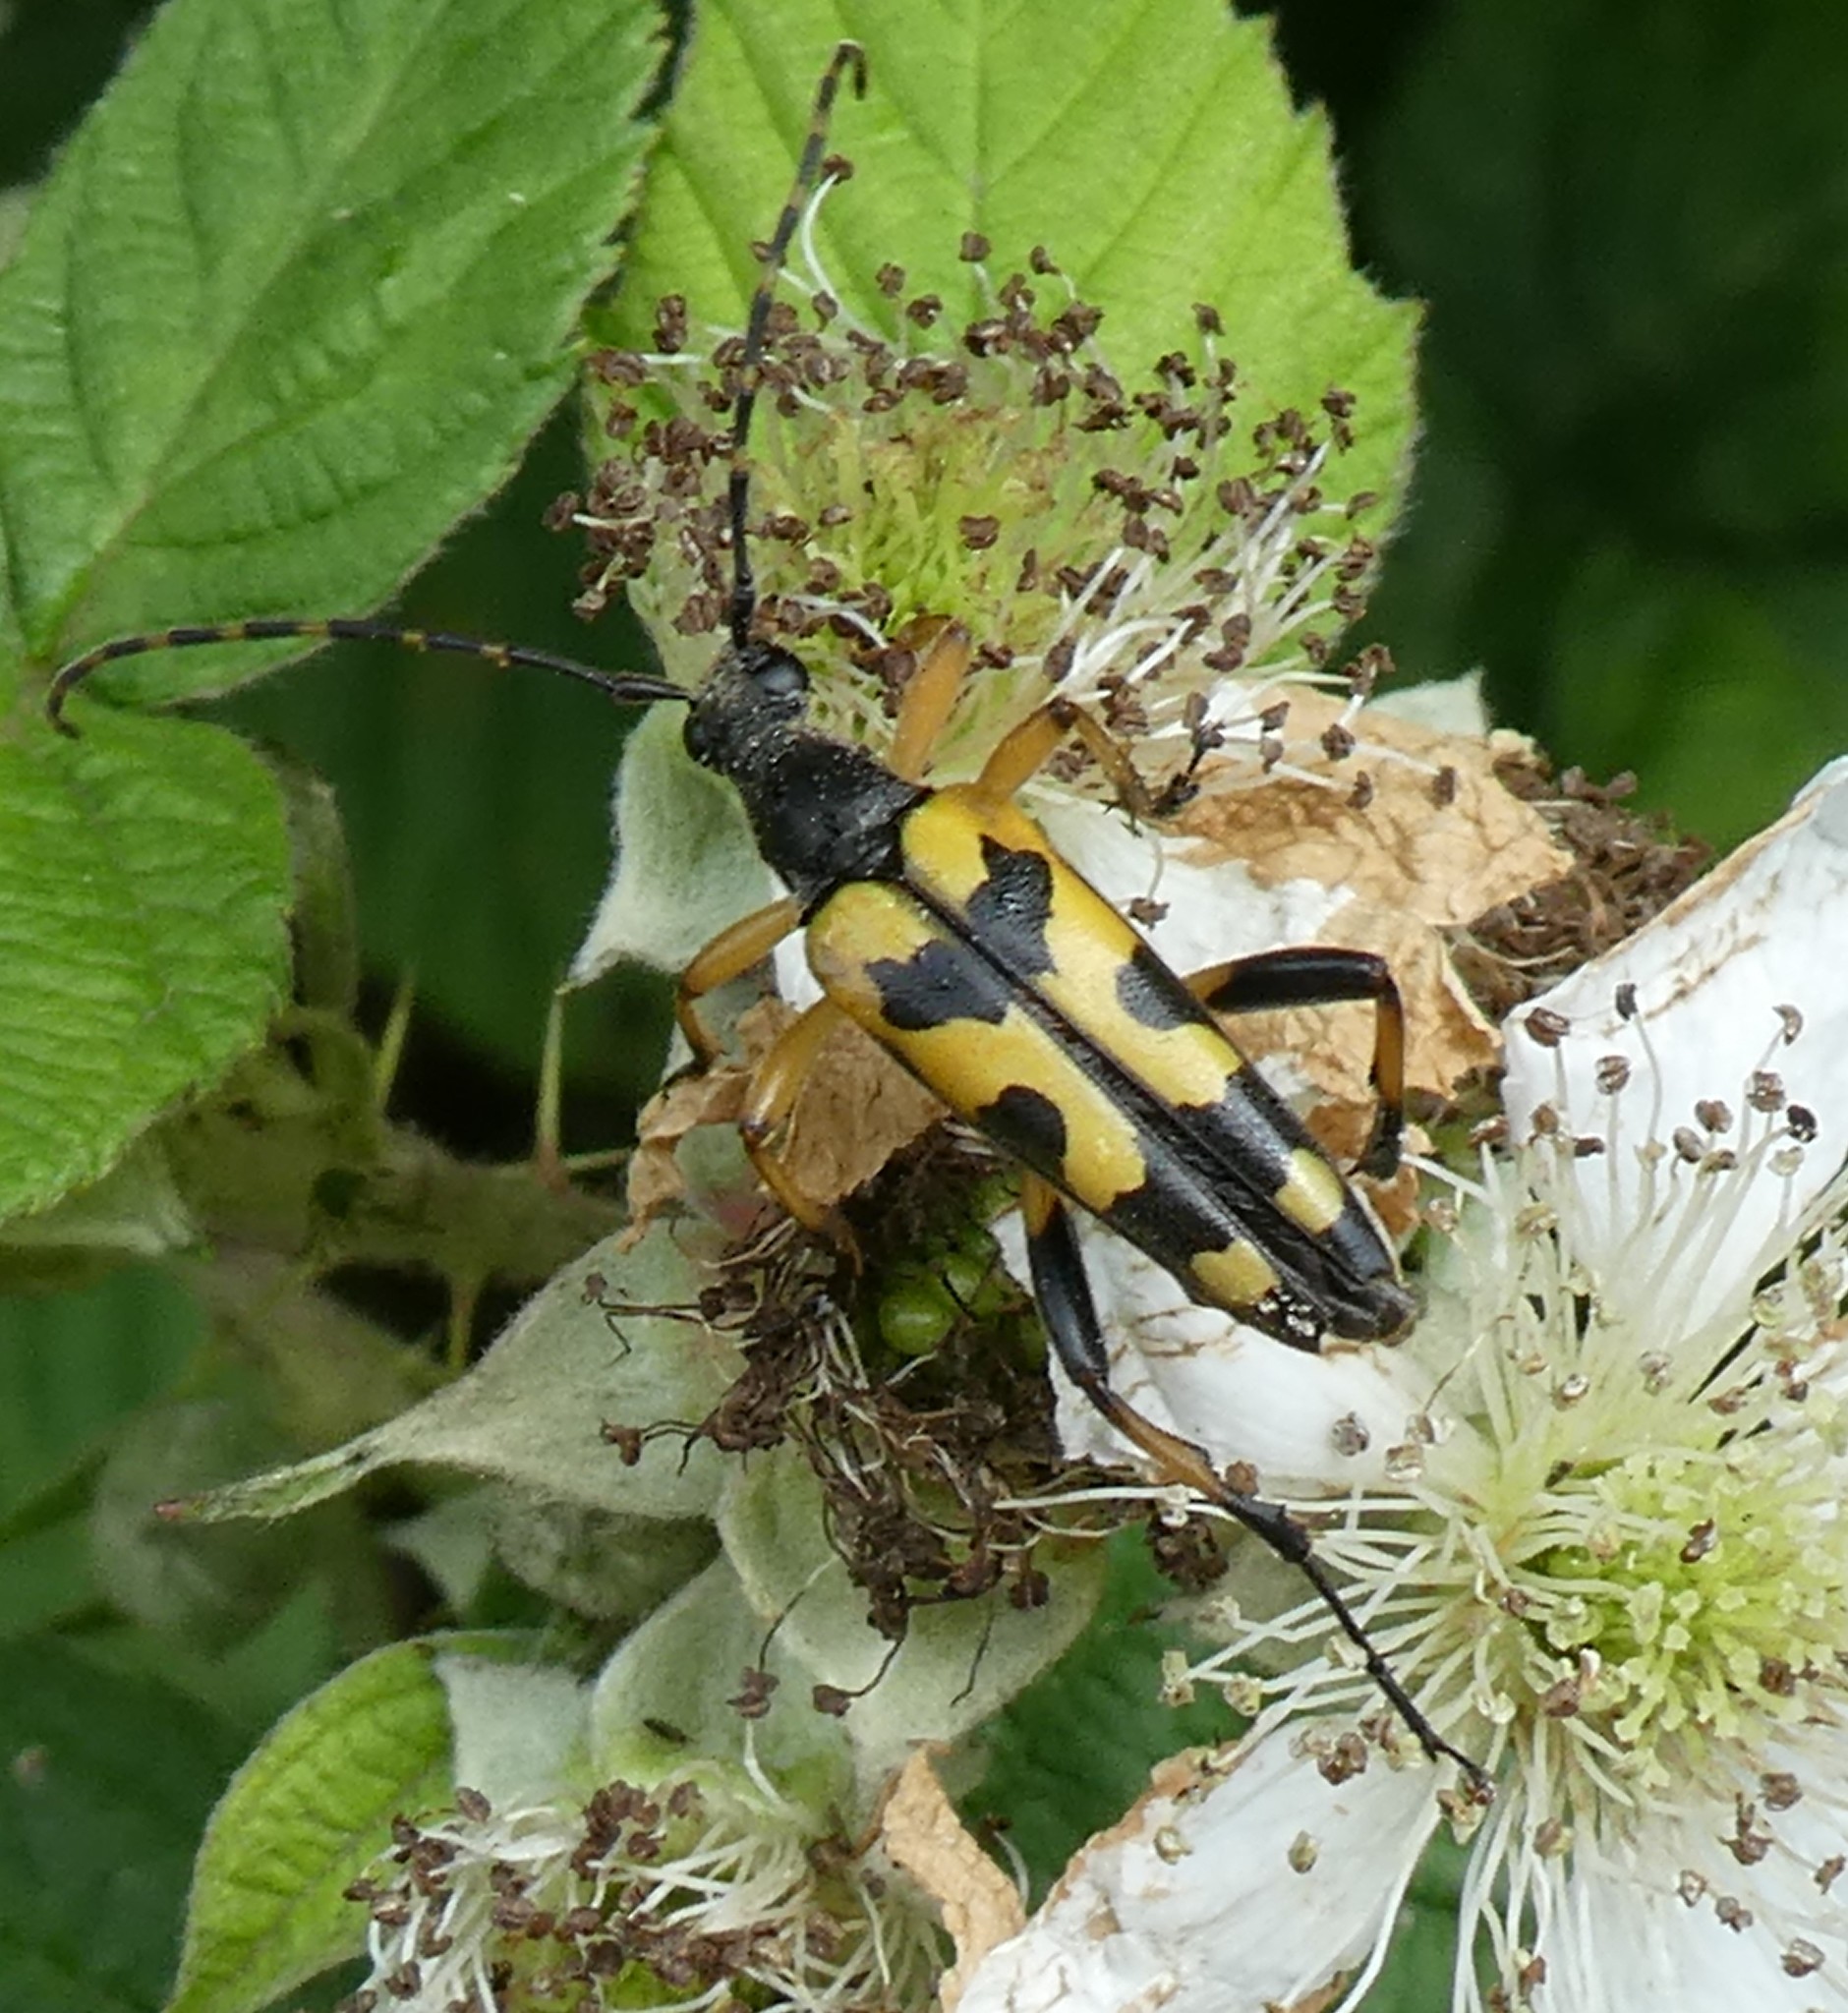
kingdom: Animalia
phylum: Arthropoda
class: Insecta
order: Coleoptera
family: Cerambycidae
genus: Rutpela
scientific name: Rutpela maculata
